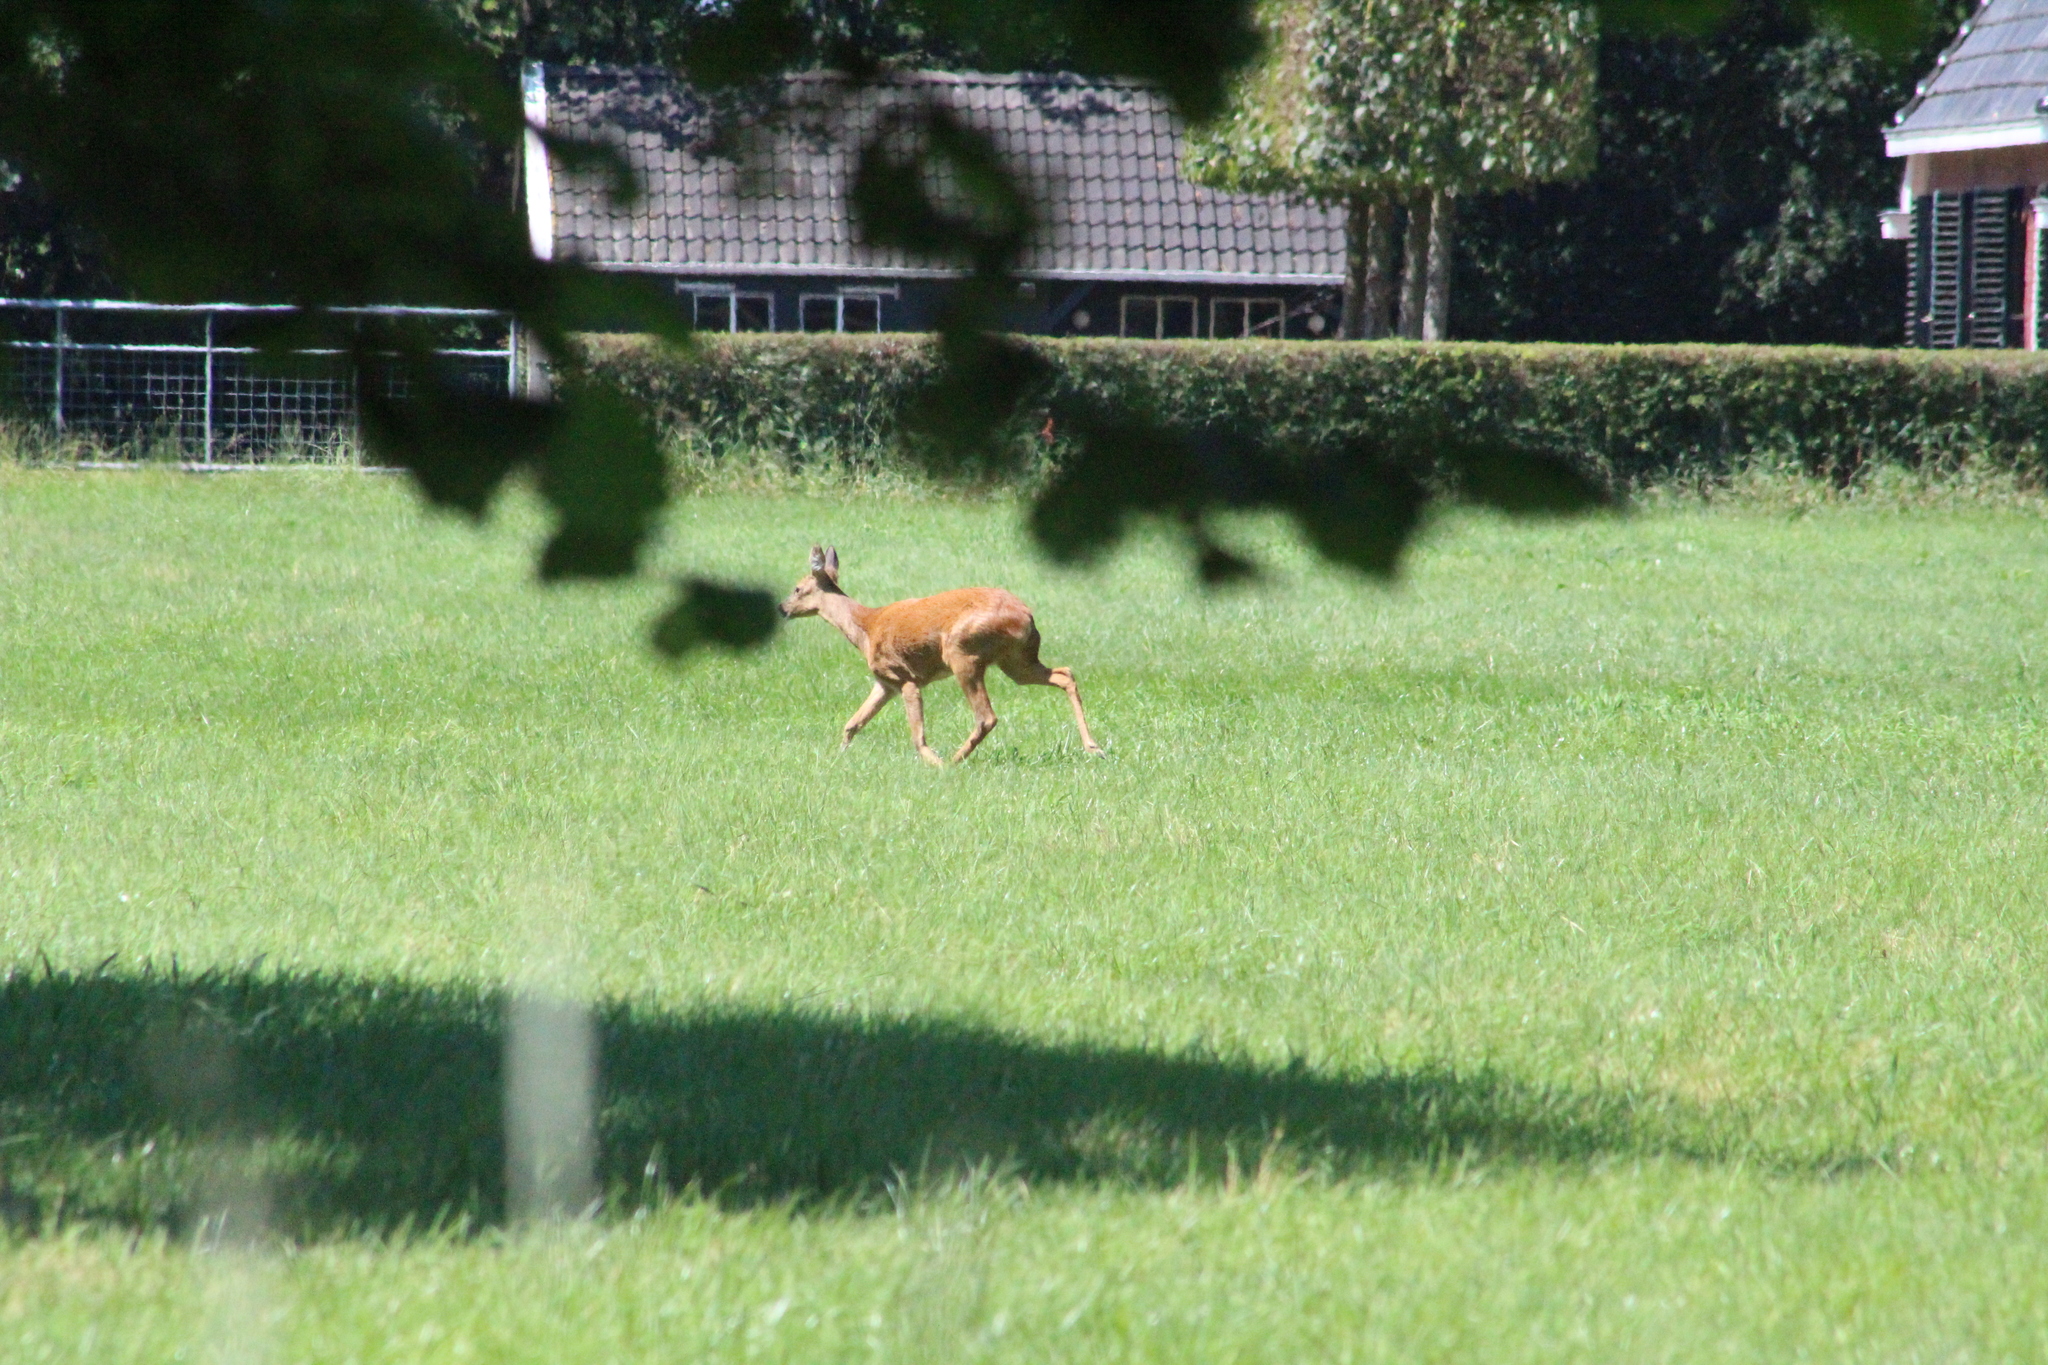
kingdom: Animalia
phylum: Chordata
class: Mammalia
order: Artiodactyla
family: Cervidae
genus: Capreolus
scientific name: Capreolus capreolus
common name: Western roe deer
